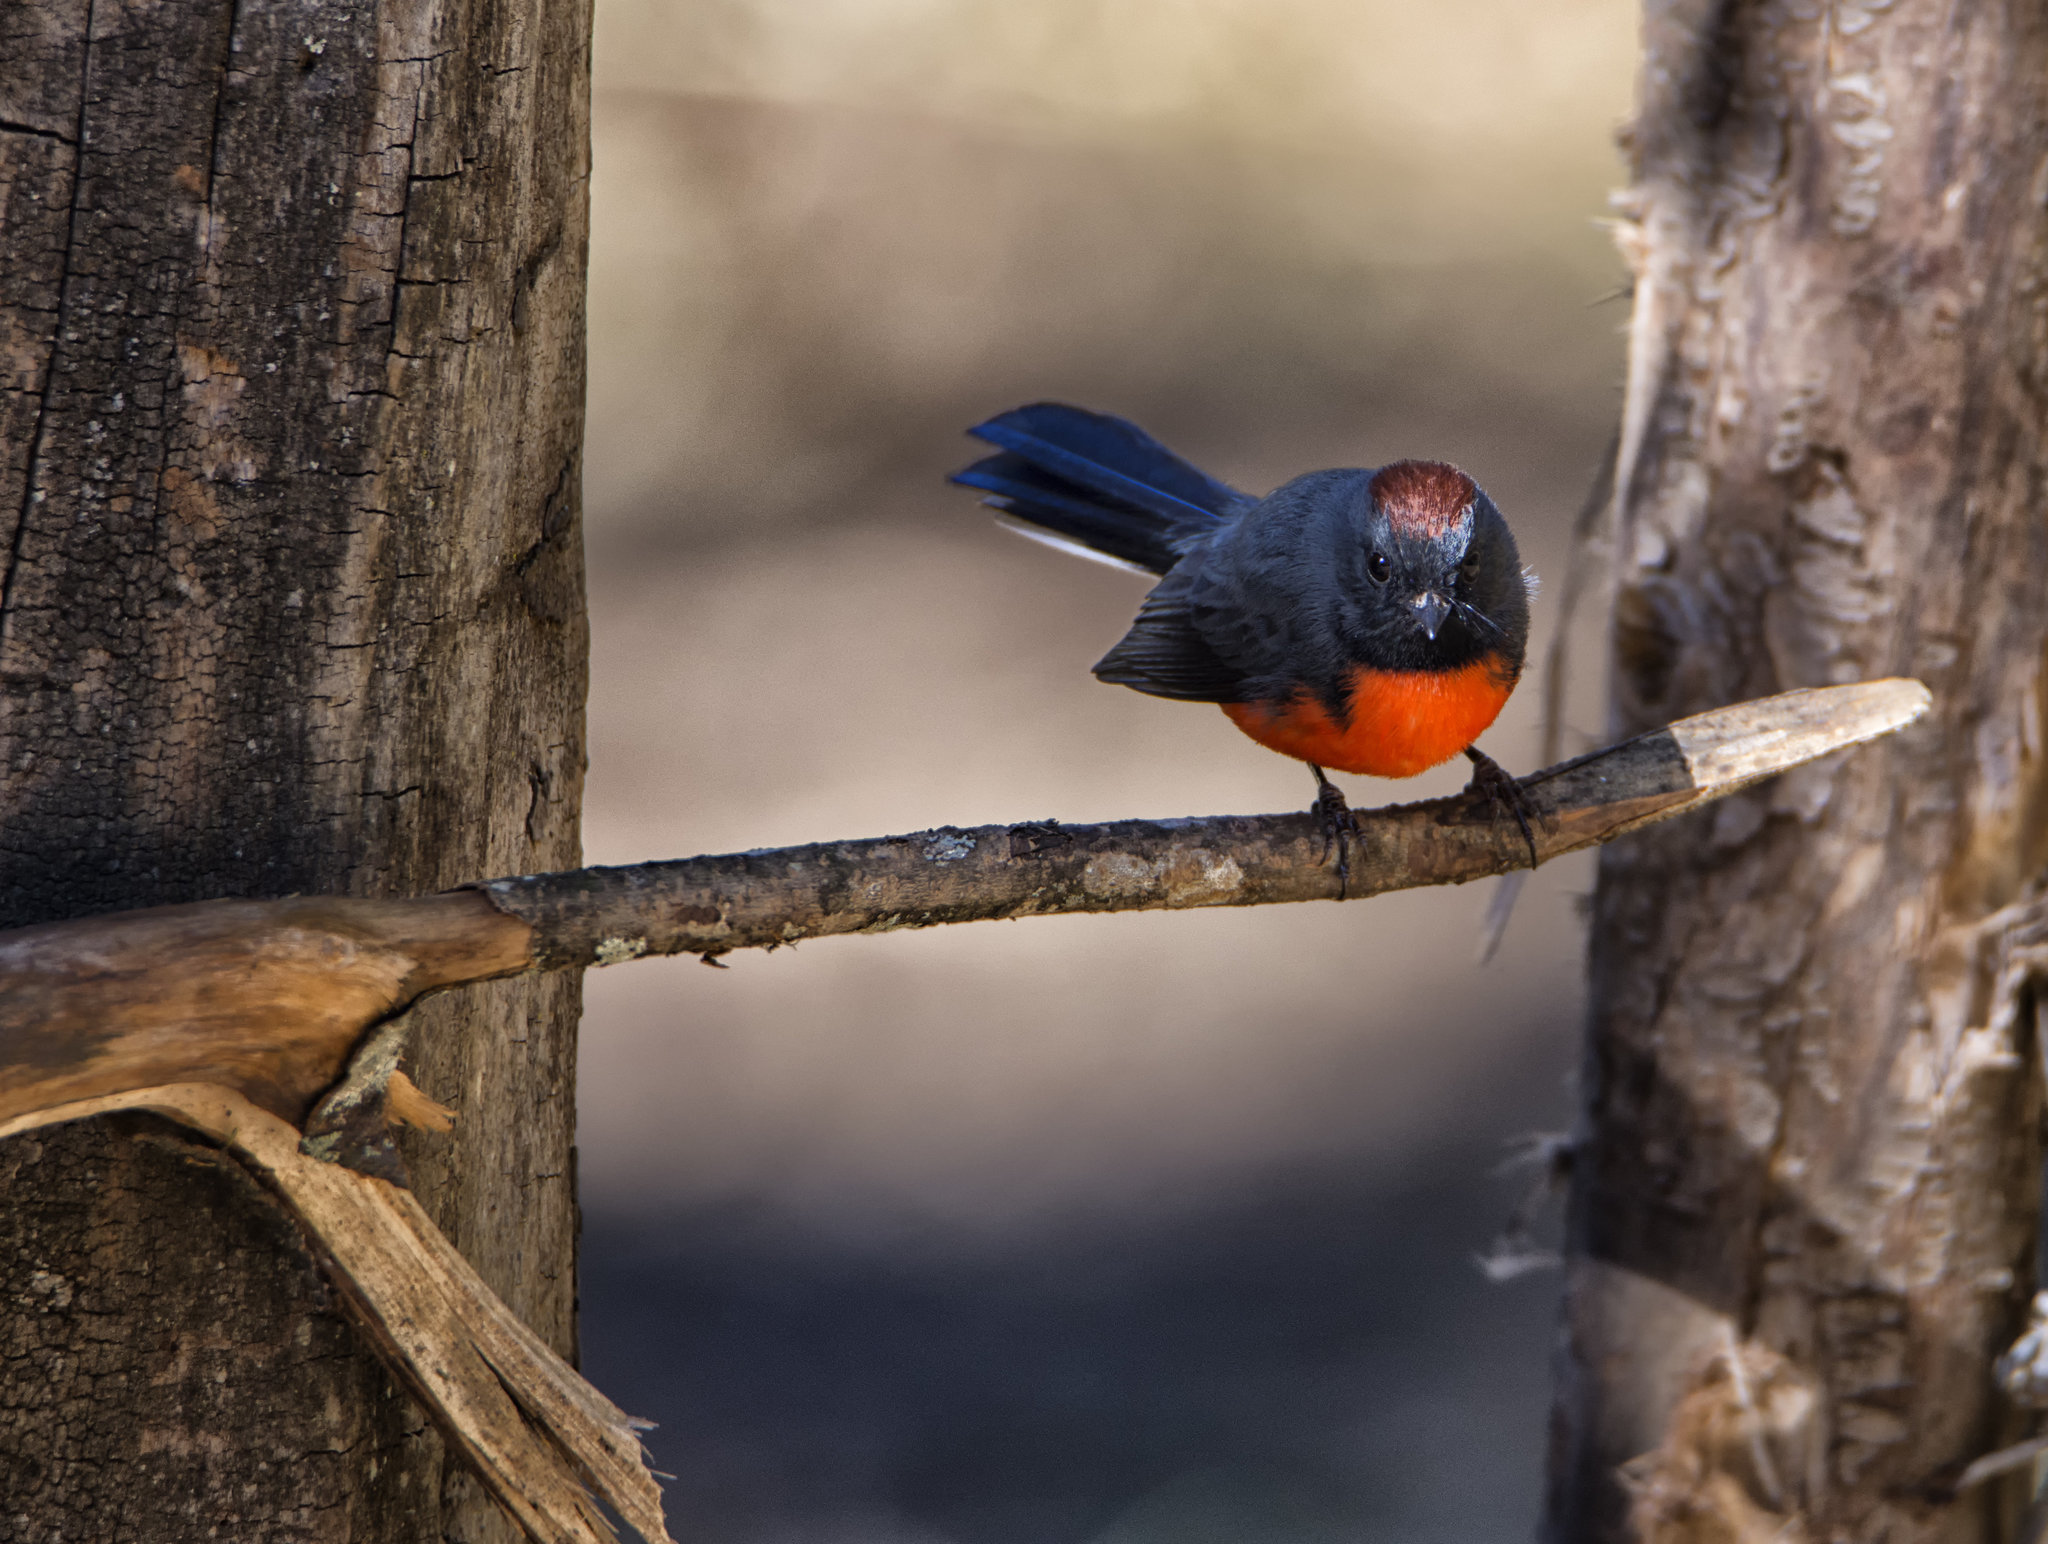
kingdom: Animalia
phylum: Chordata
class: Aves
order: Passeriformes
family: Parulidae
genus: Myioborus
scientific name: Myioborus miniatus
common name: Slate-throated redstart
